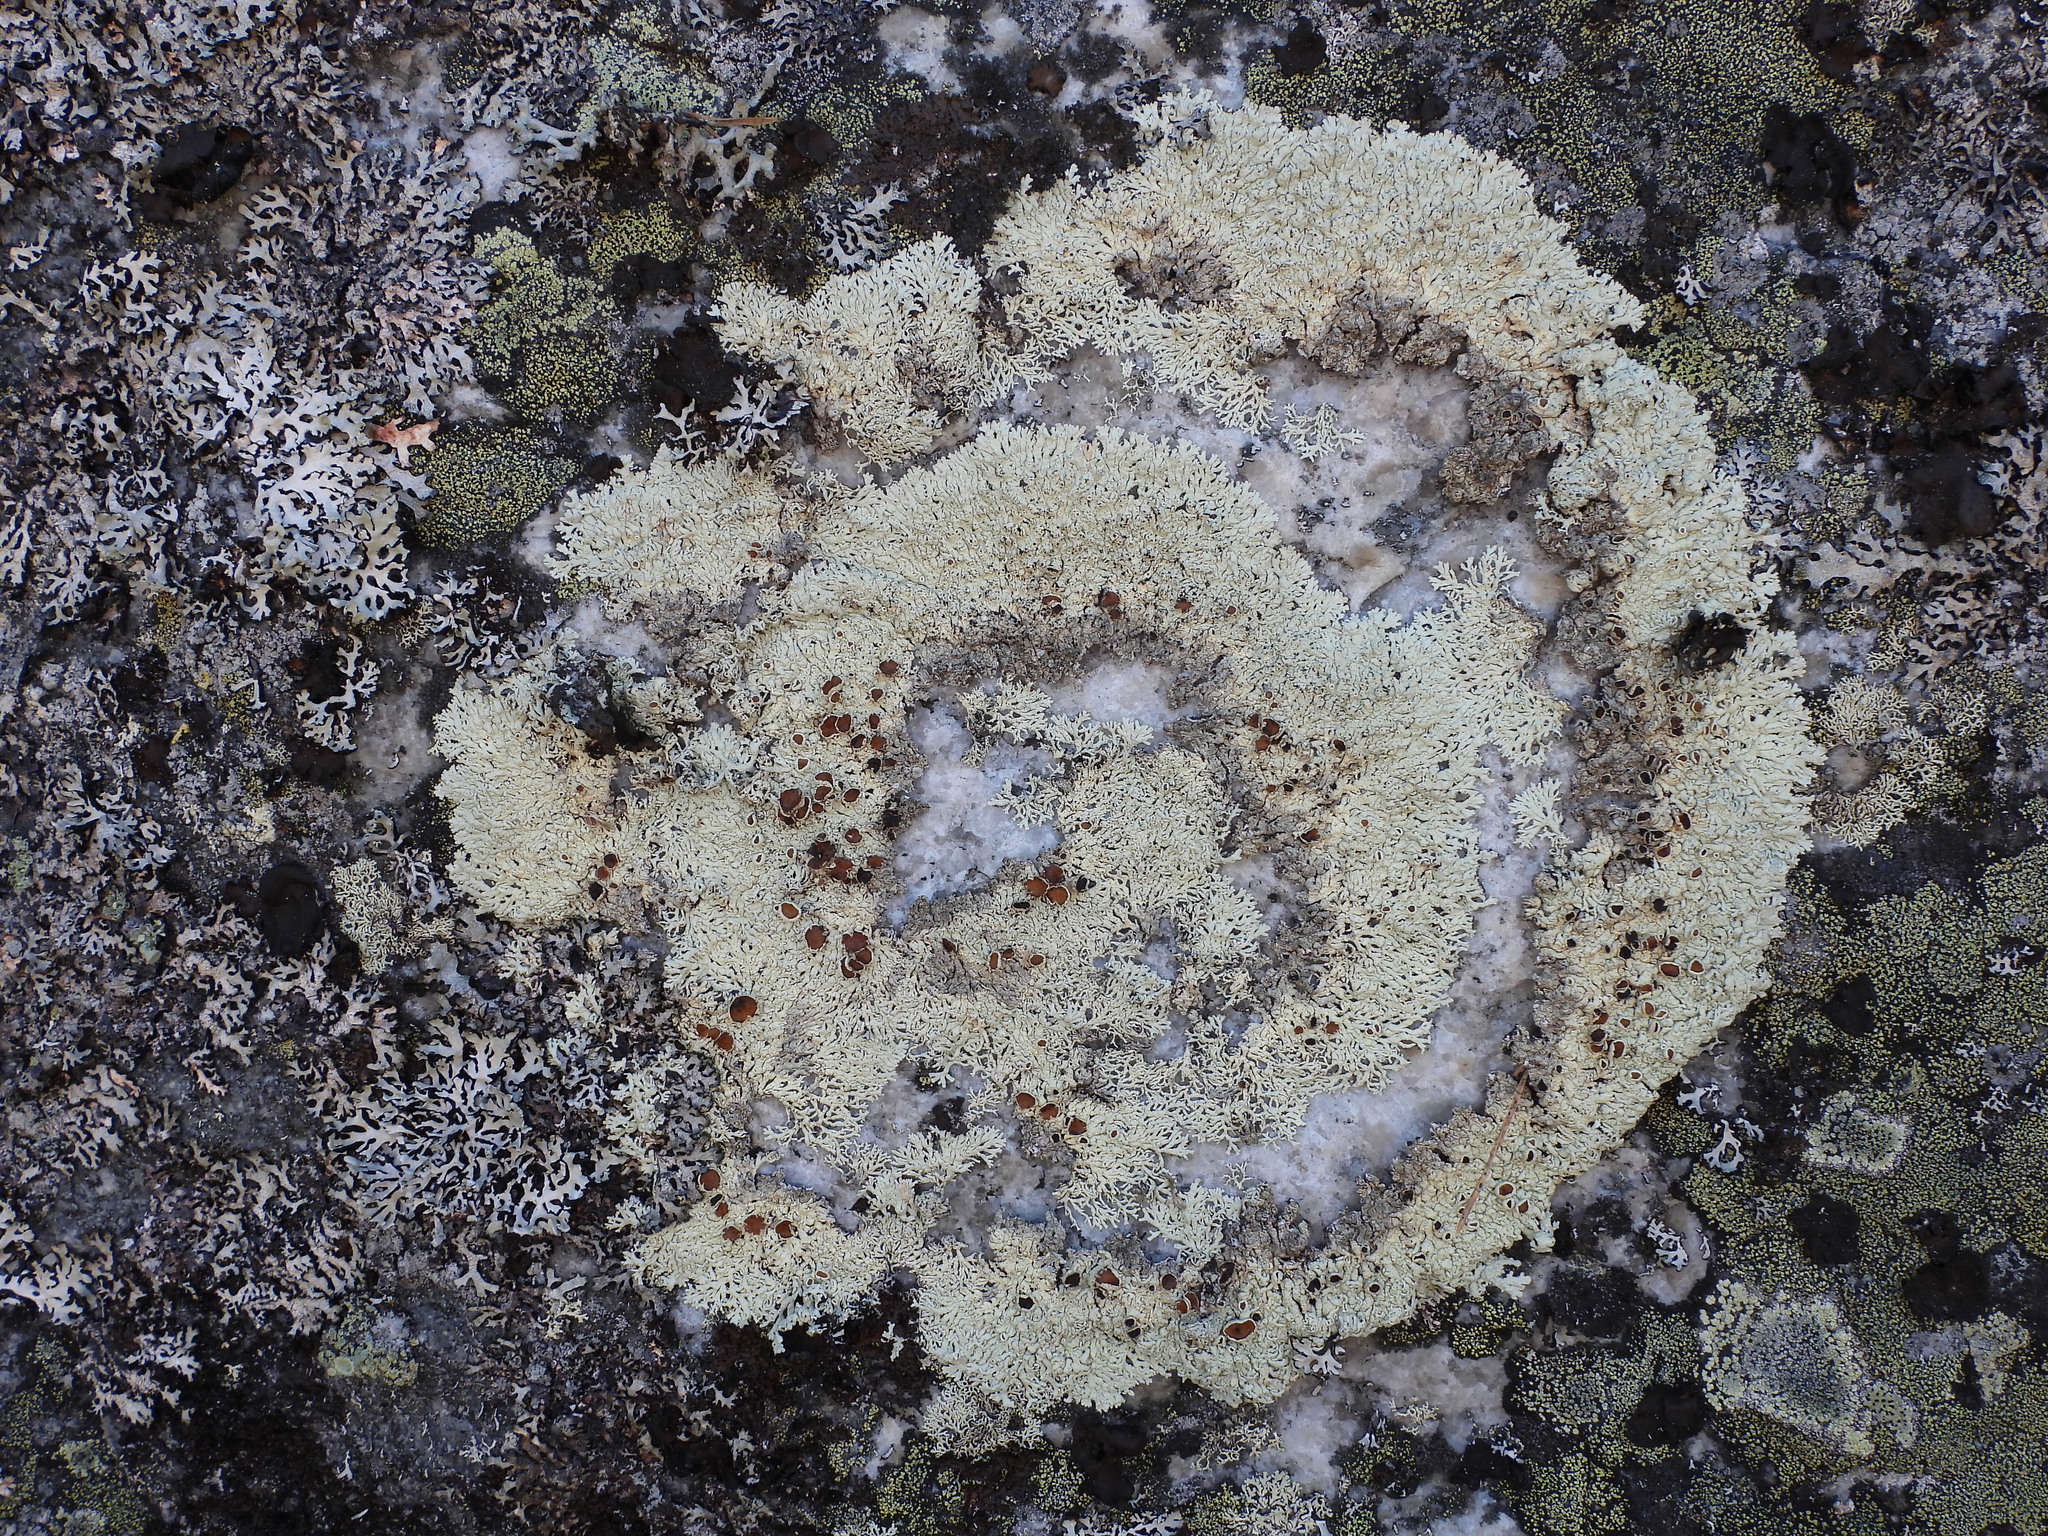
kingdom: Fungi
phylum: Ascomycota
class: Lecanoromycetes
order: Lecanorales
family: Parmeliaceae
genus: Arctoparmelia
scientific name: Arctoparmelia centrifuga
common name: Concentric ring lichen
